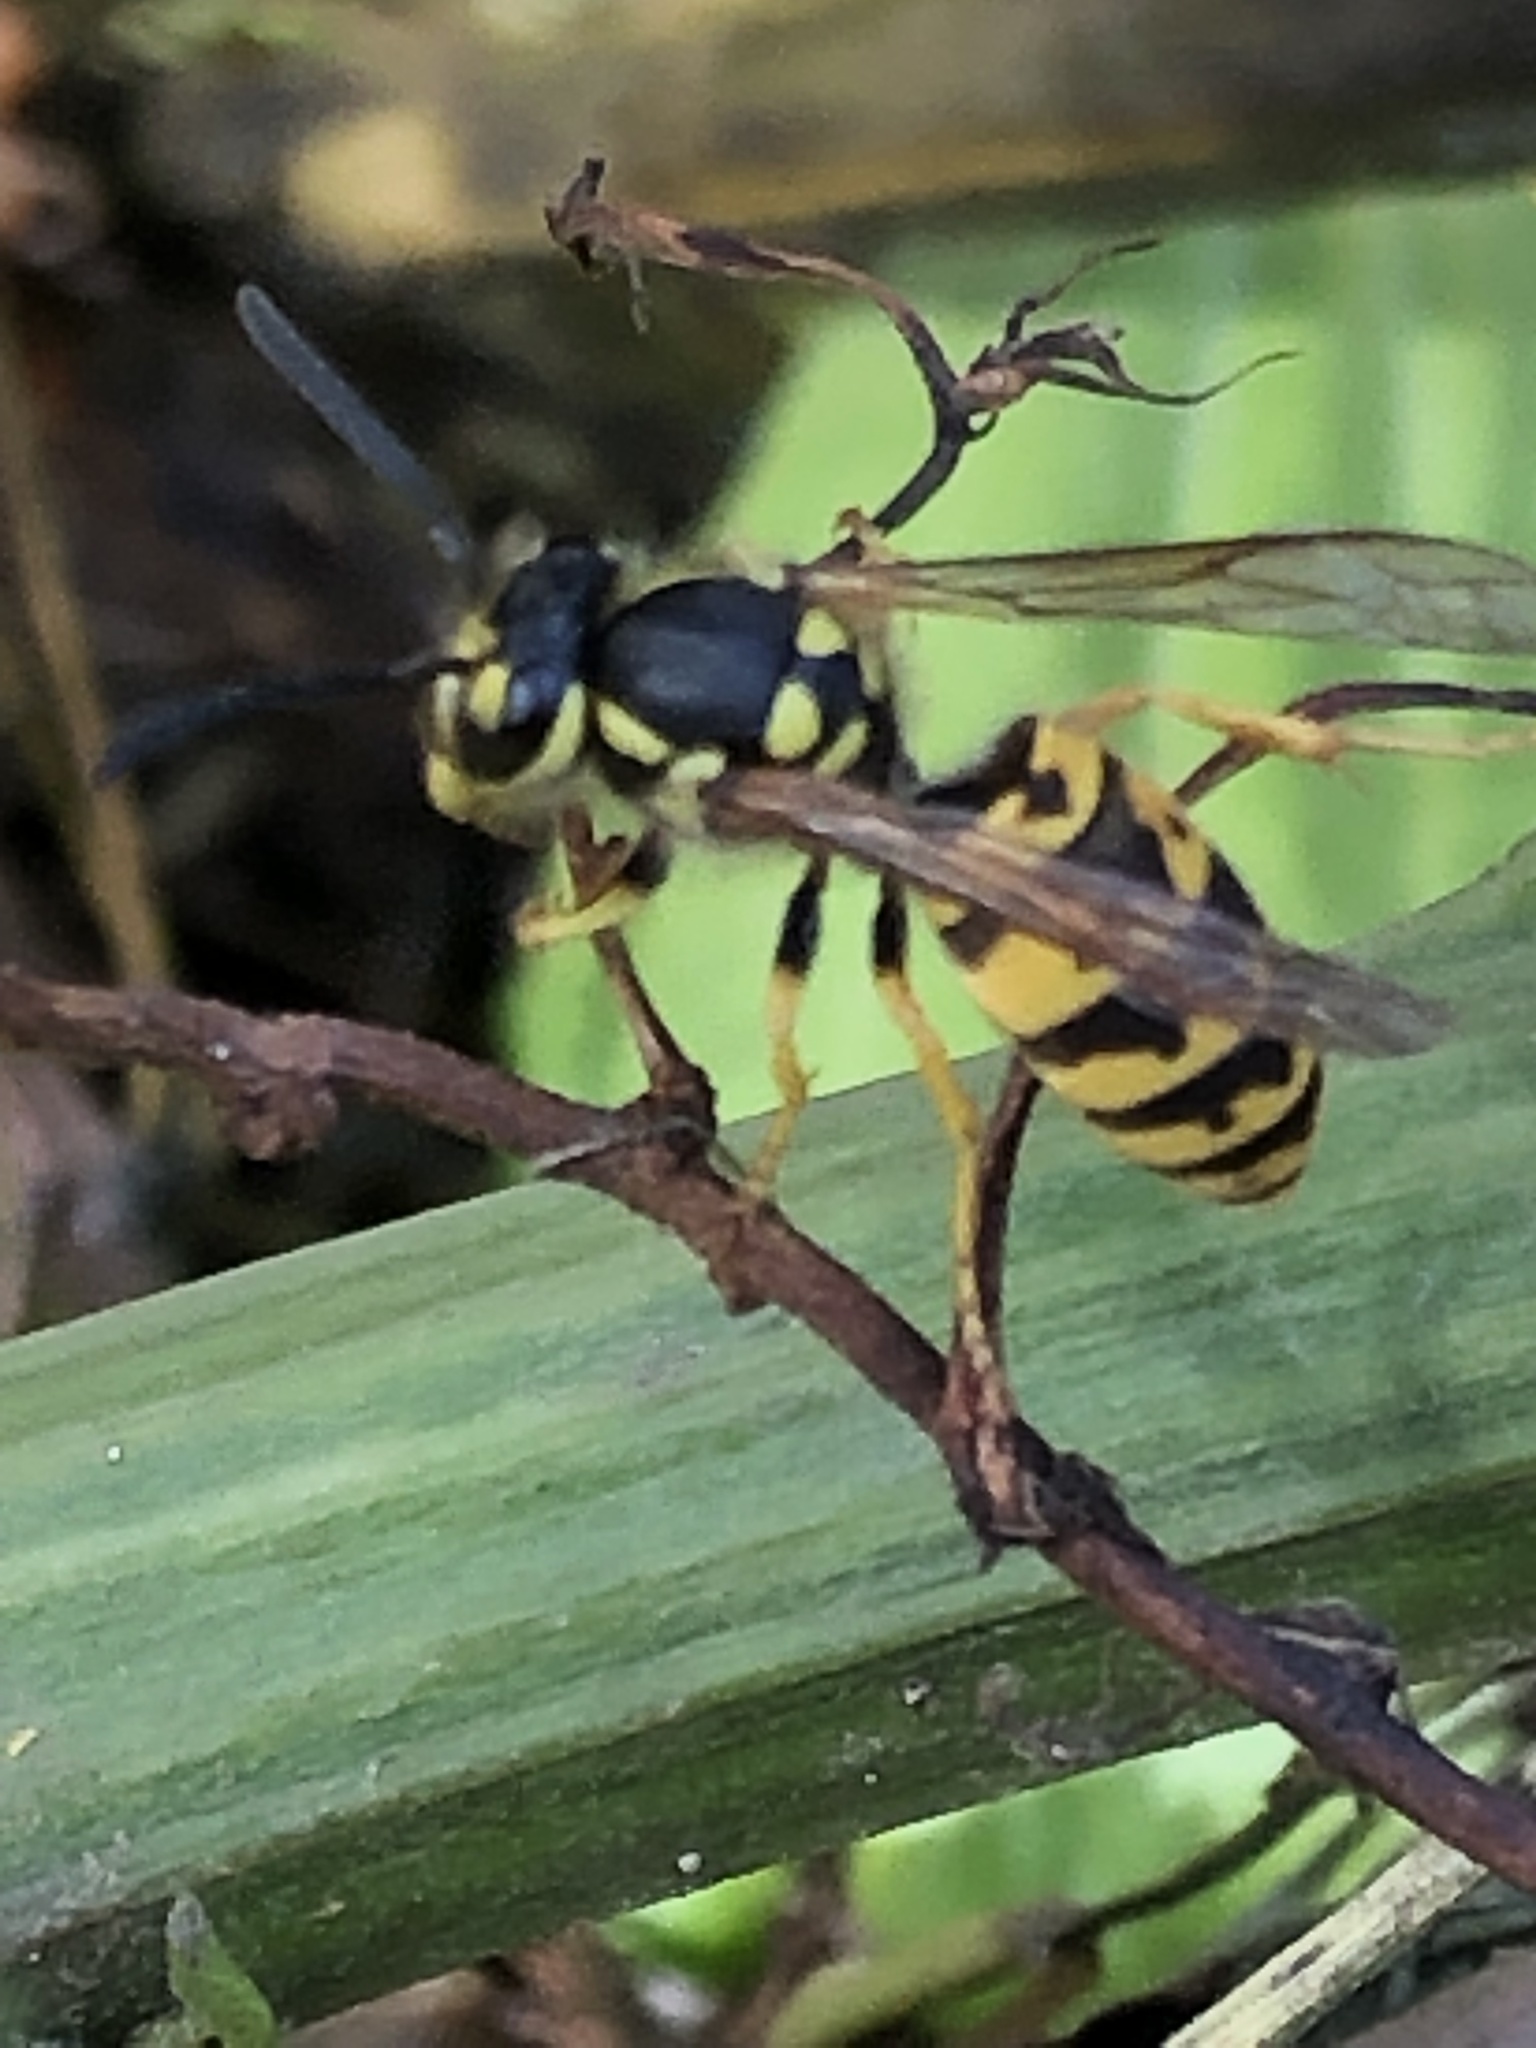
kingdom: Animalia
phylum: Arthropoda
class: Insecta
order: Hymenoptera
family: Vespidae
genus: Vespula
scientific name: Vespula germanica
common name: German wasp
